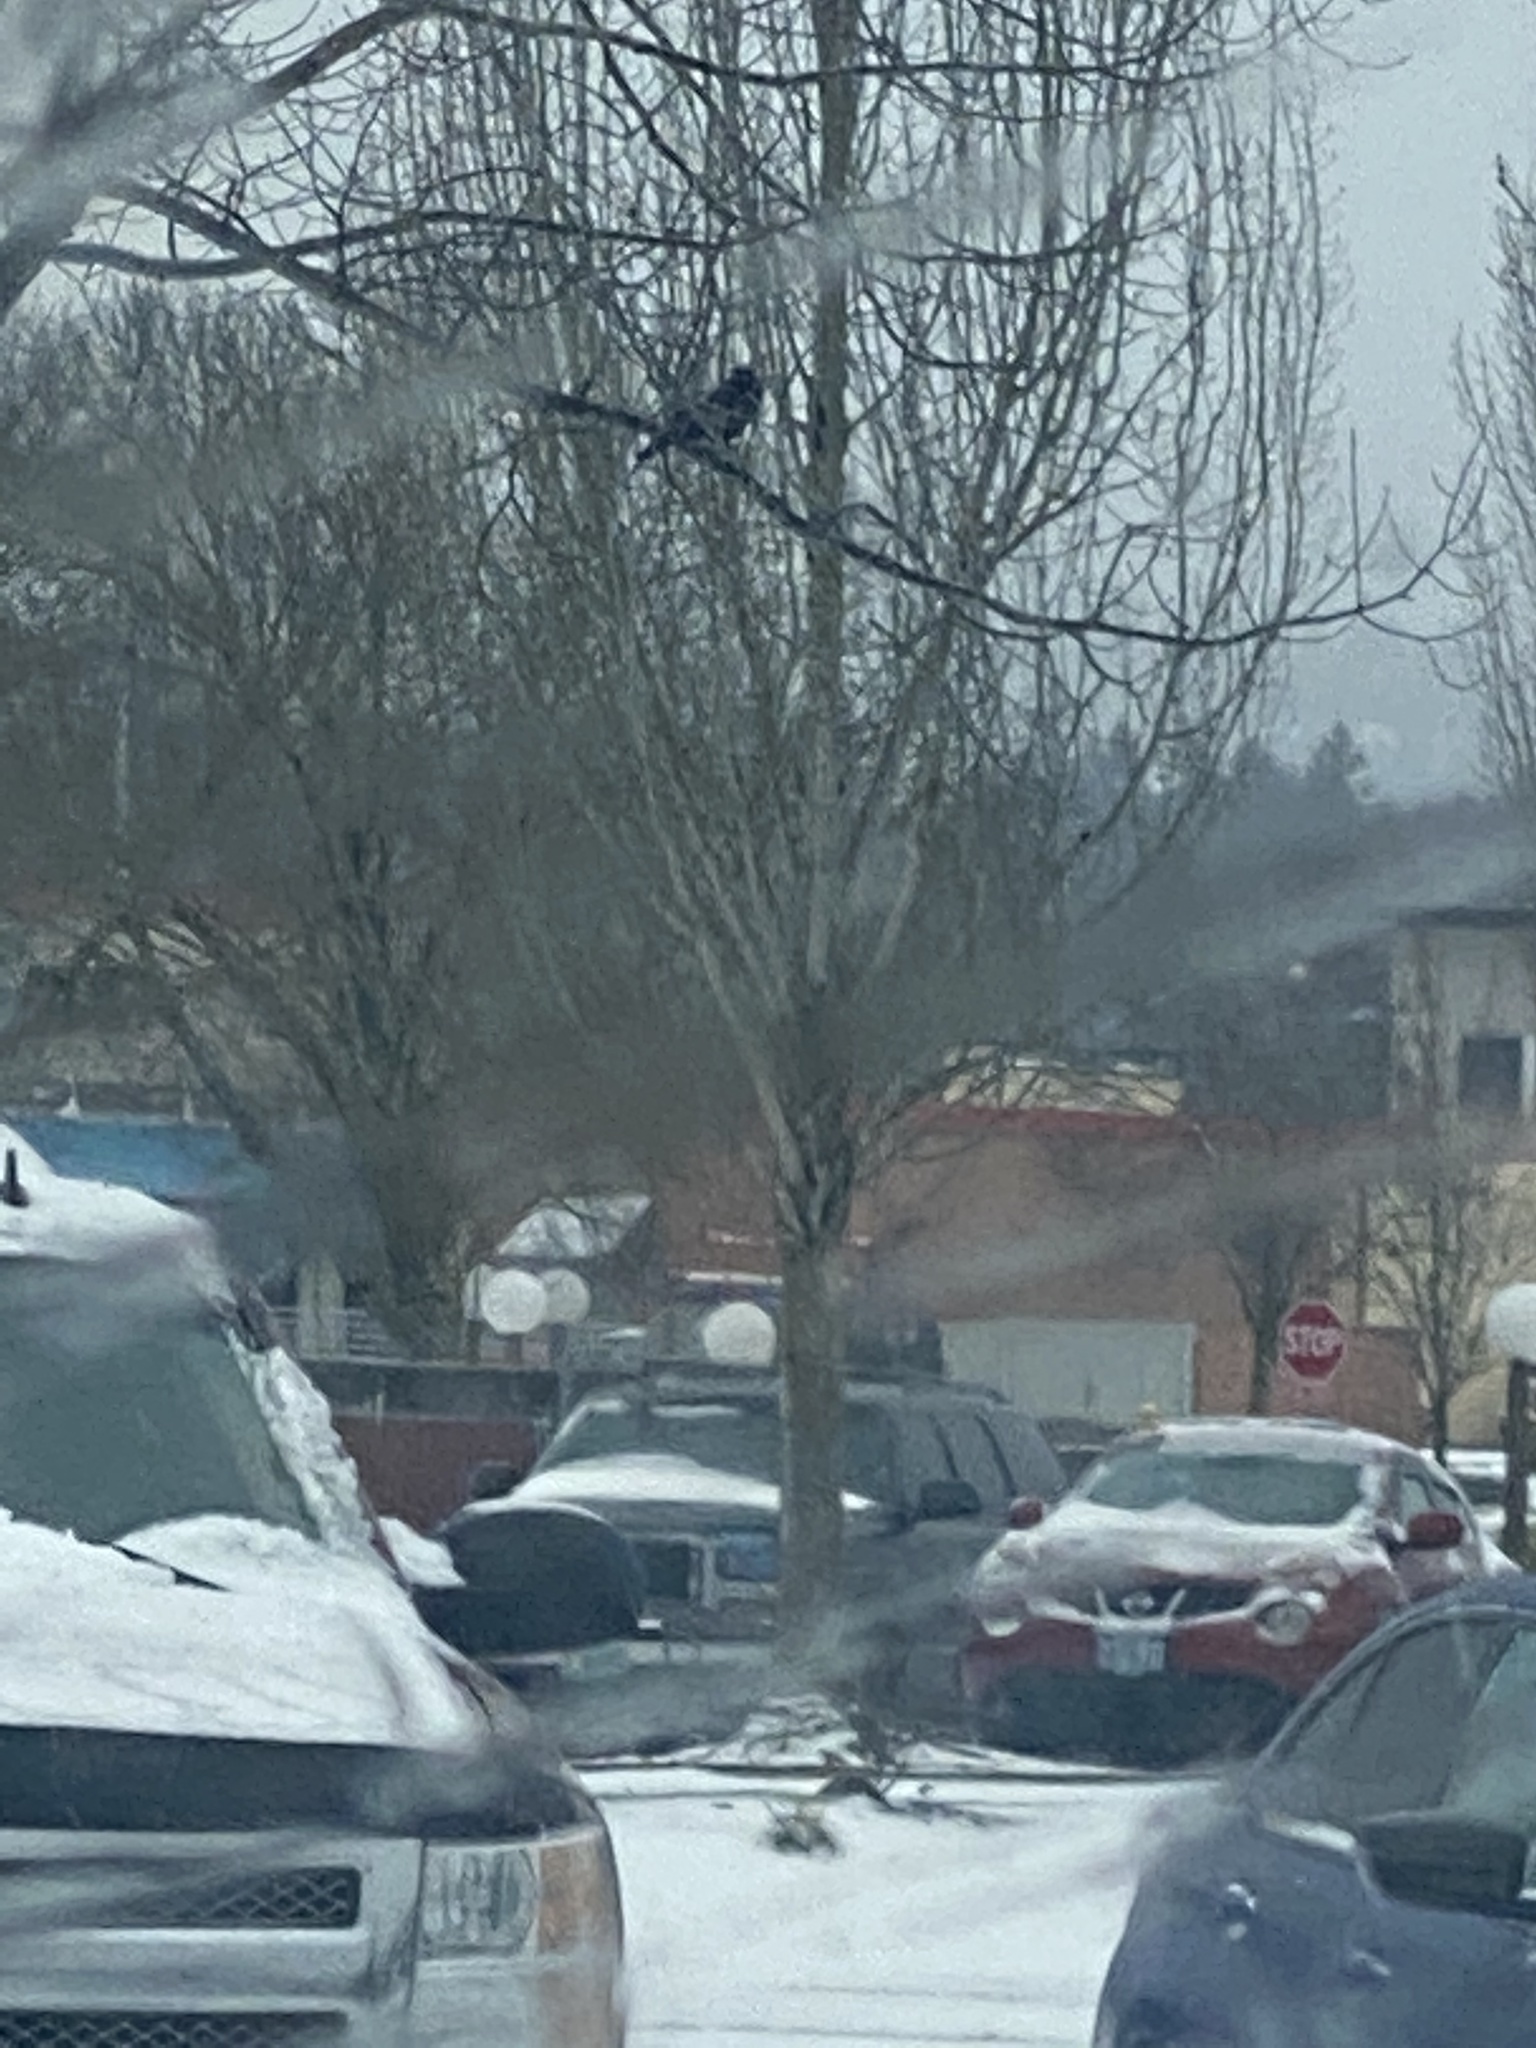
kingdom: Animalia
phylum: Chordata
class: Aves
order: Passeriformes
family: Corvidae
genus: Corvus
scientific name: Corvus brachyrhynchos
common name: American crow
